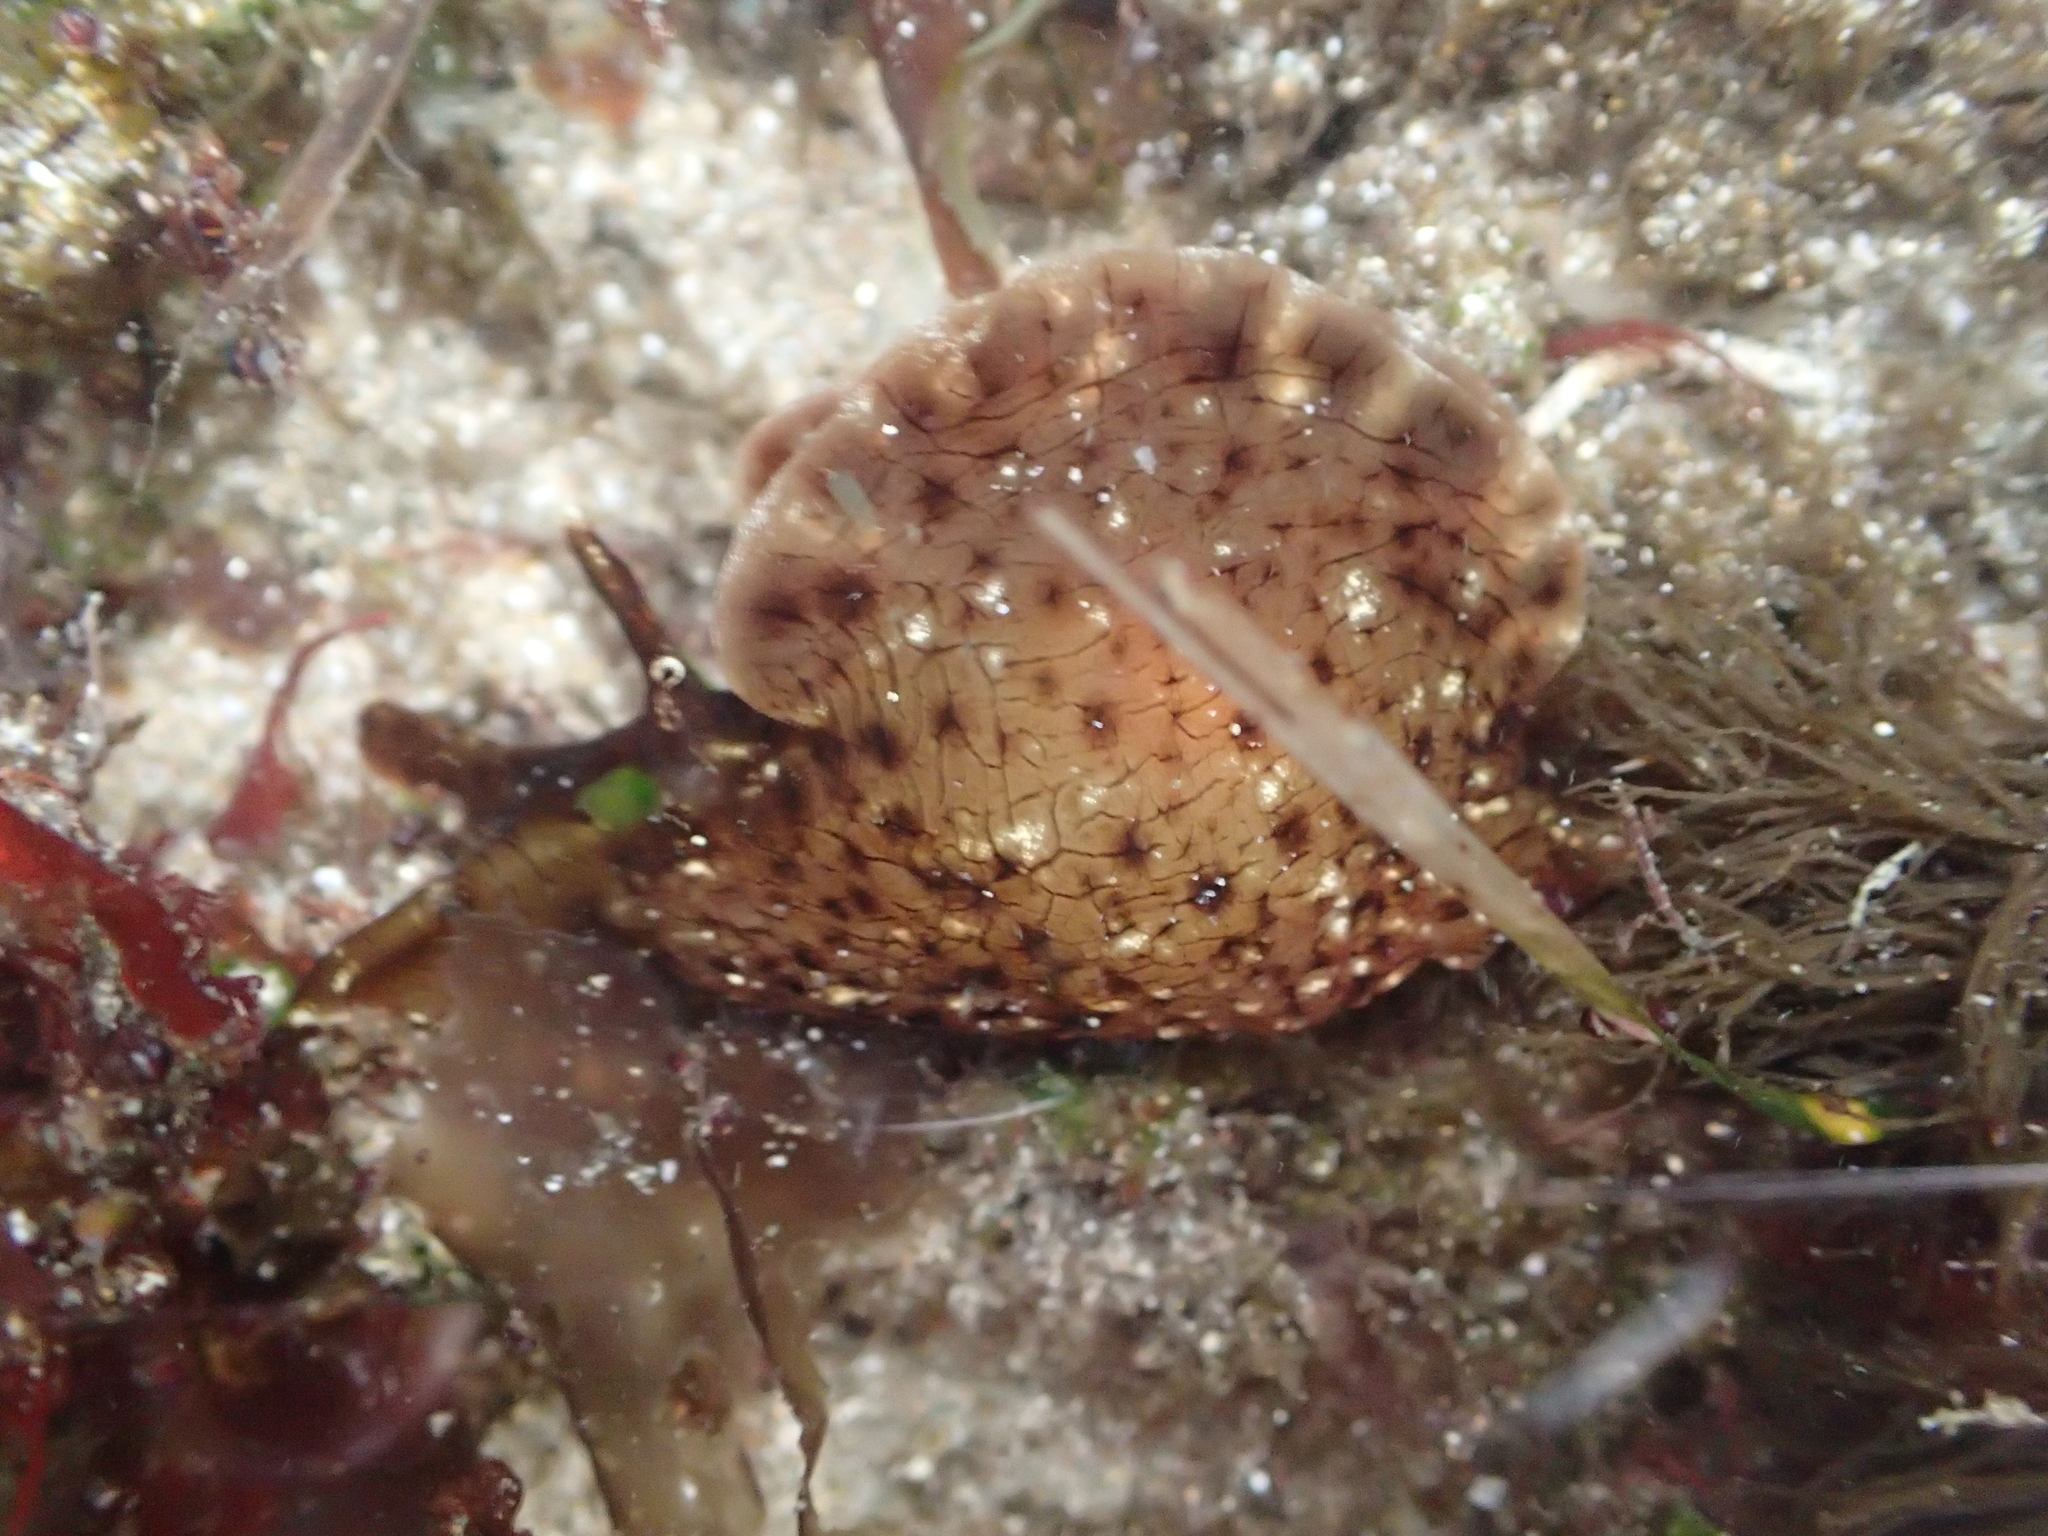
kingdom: Animalia
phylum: Mollusca
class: Gastropoda
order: Aplysiida
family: Aplysiidae
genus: Aplysia
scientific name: Aplysia californica
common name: California seahare
